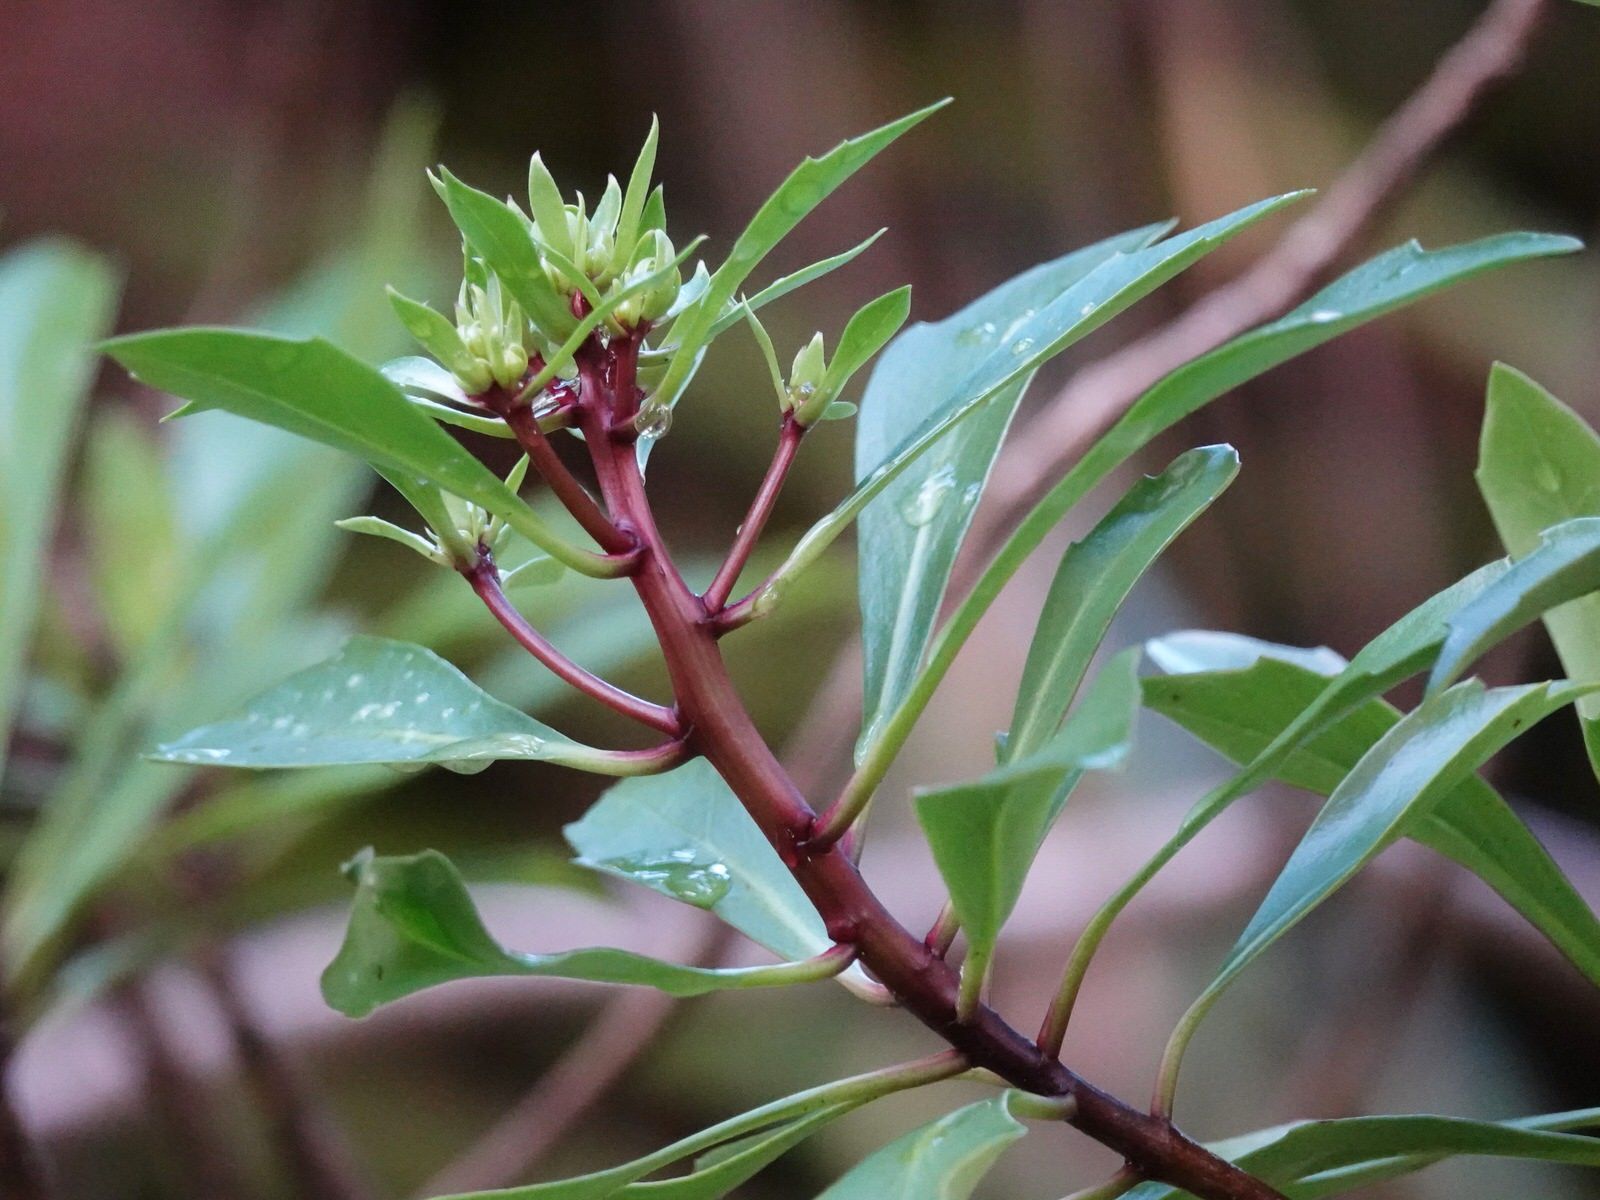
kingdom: Plantae
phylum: Tracheophyta
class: Magnoliopsida
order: Asterales
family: Asteraceae
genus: Brachyglottis
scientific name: Brachyglottis kirkii
